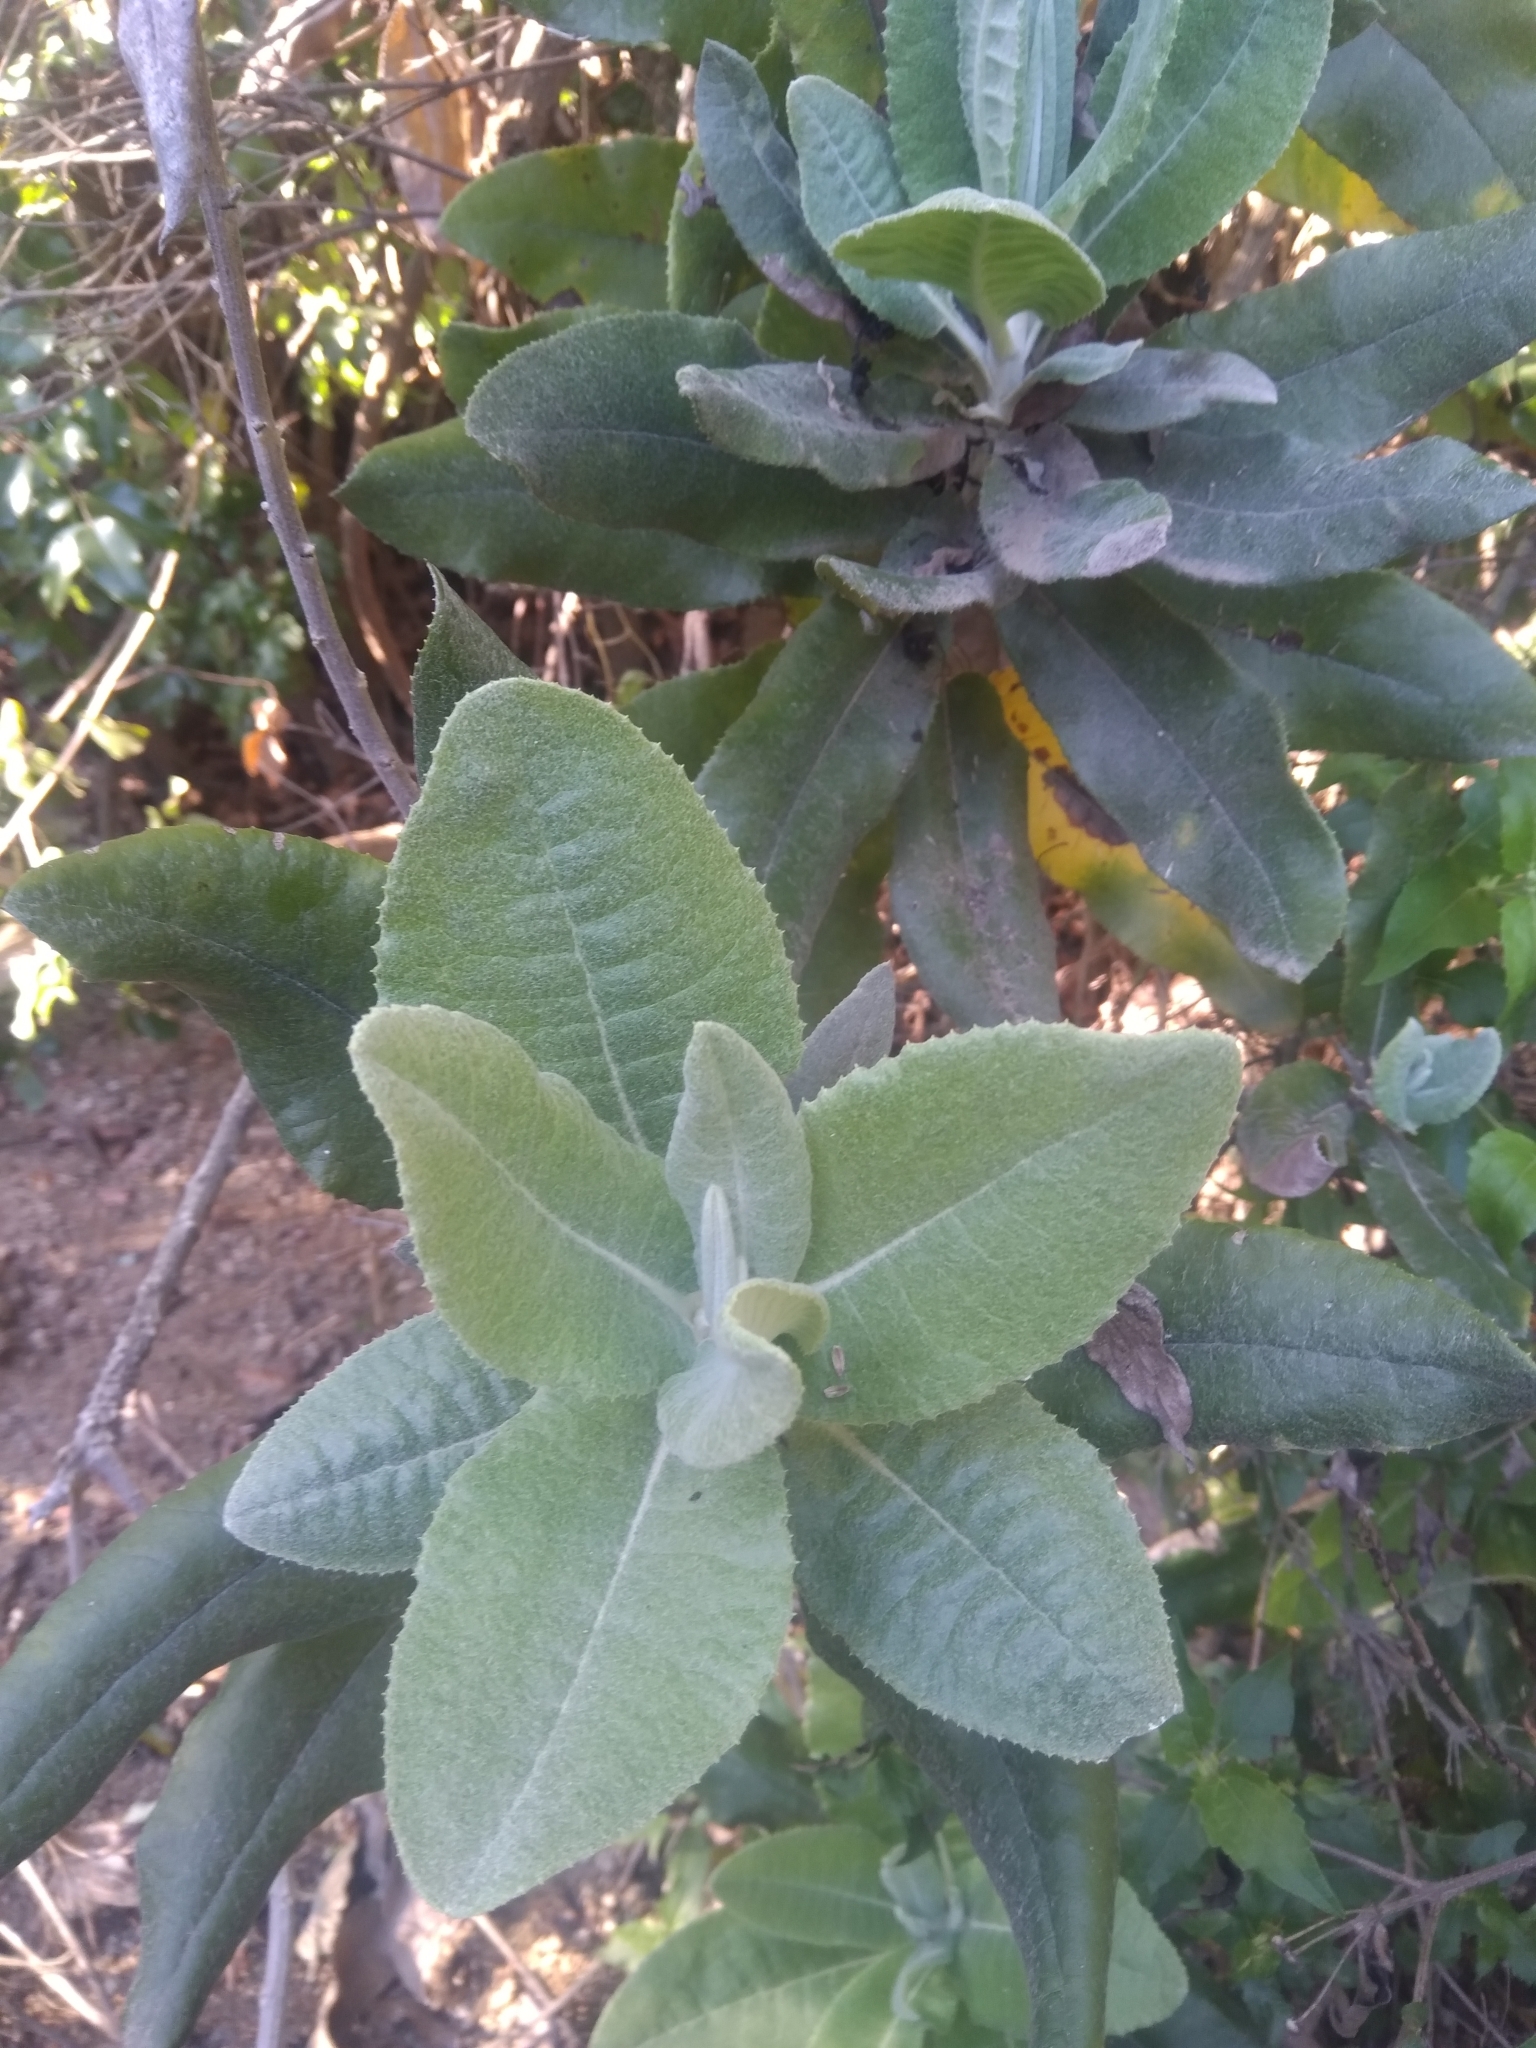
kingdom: Plantae
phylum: Tracheophyta
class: Magnoliopsida
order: Asterales
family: Asteraceae
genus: Acrisione
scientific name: Acrisione denticulata
